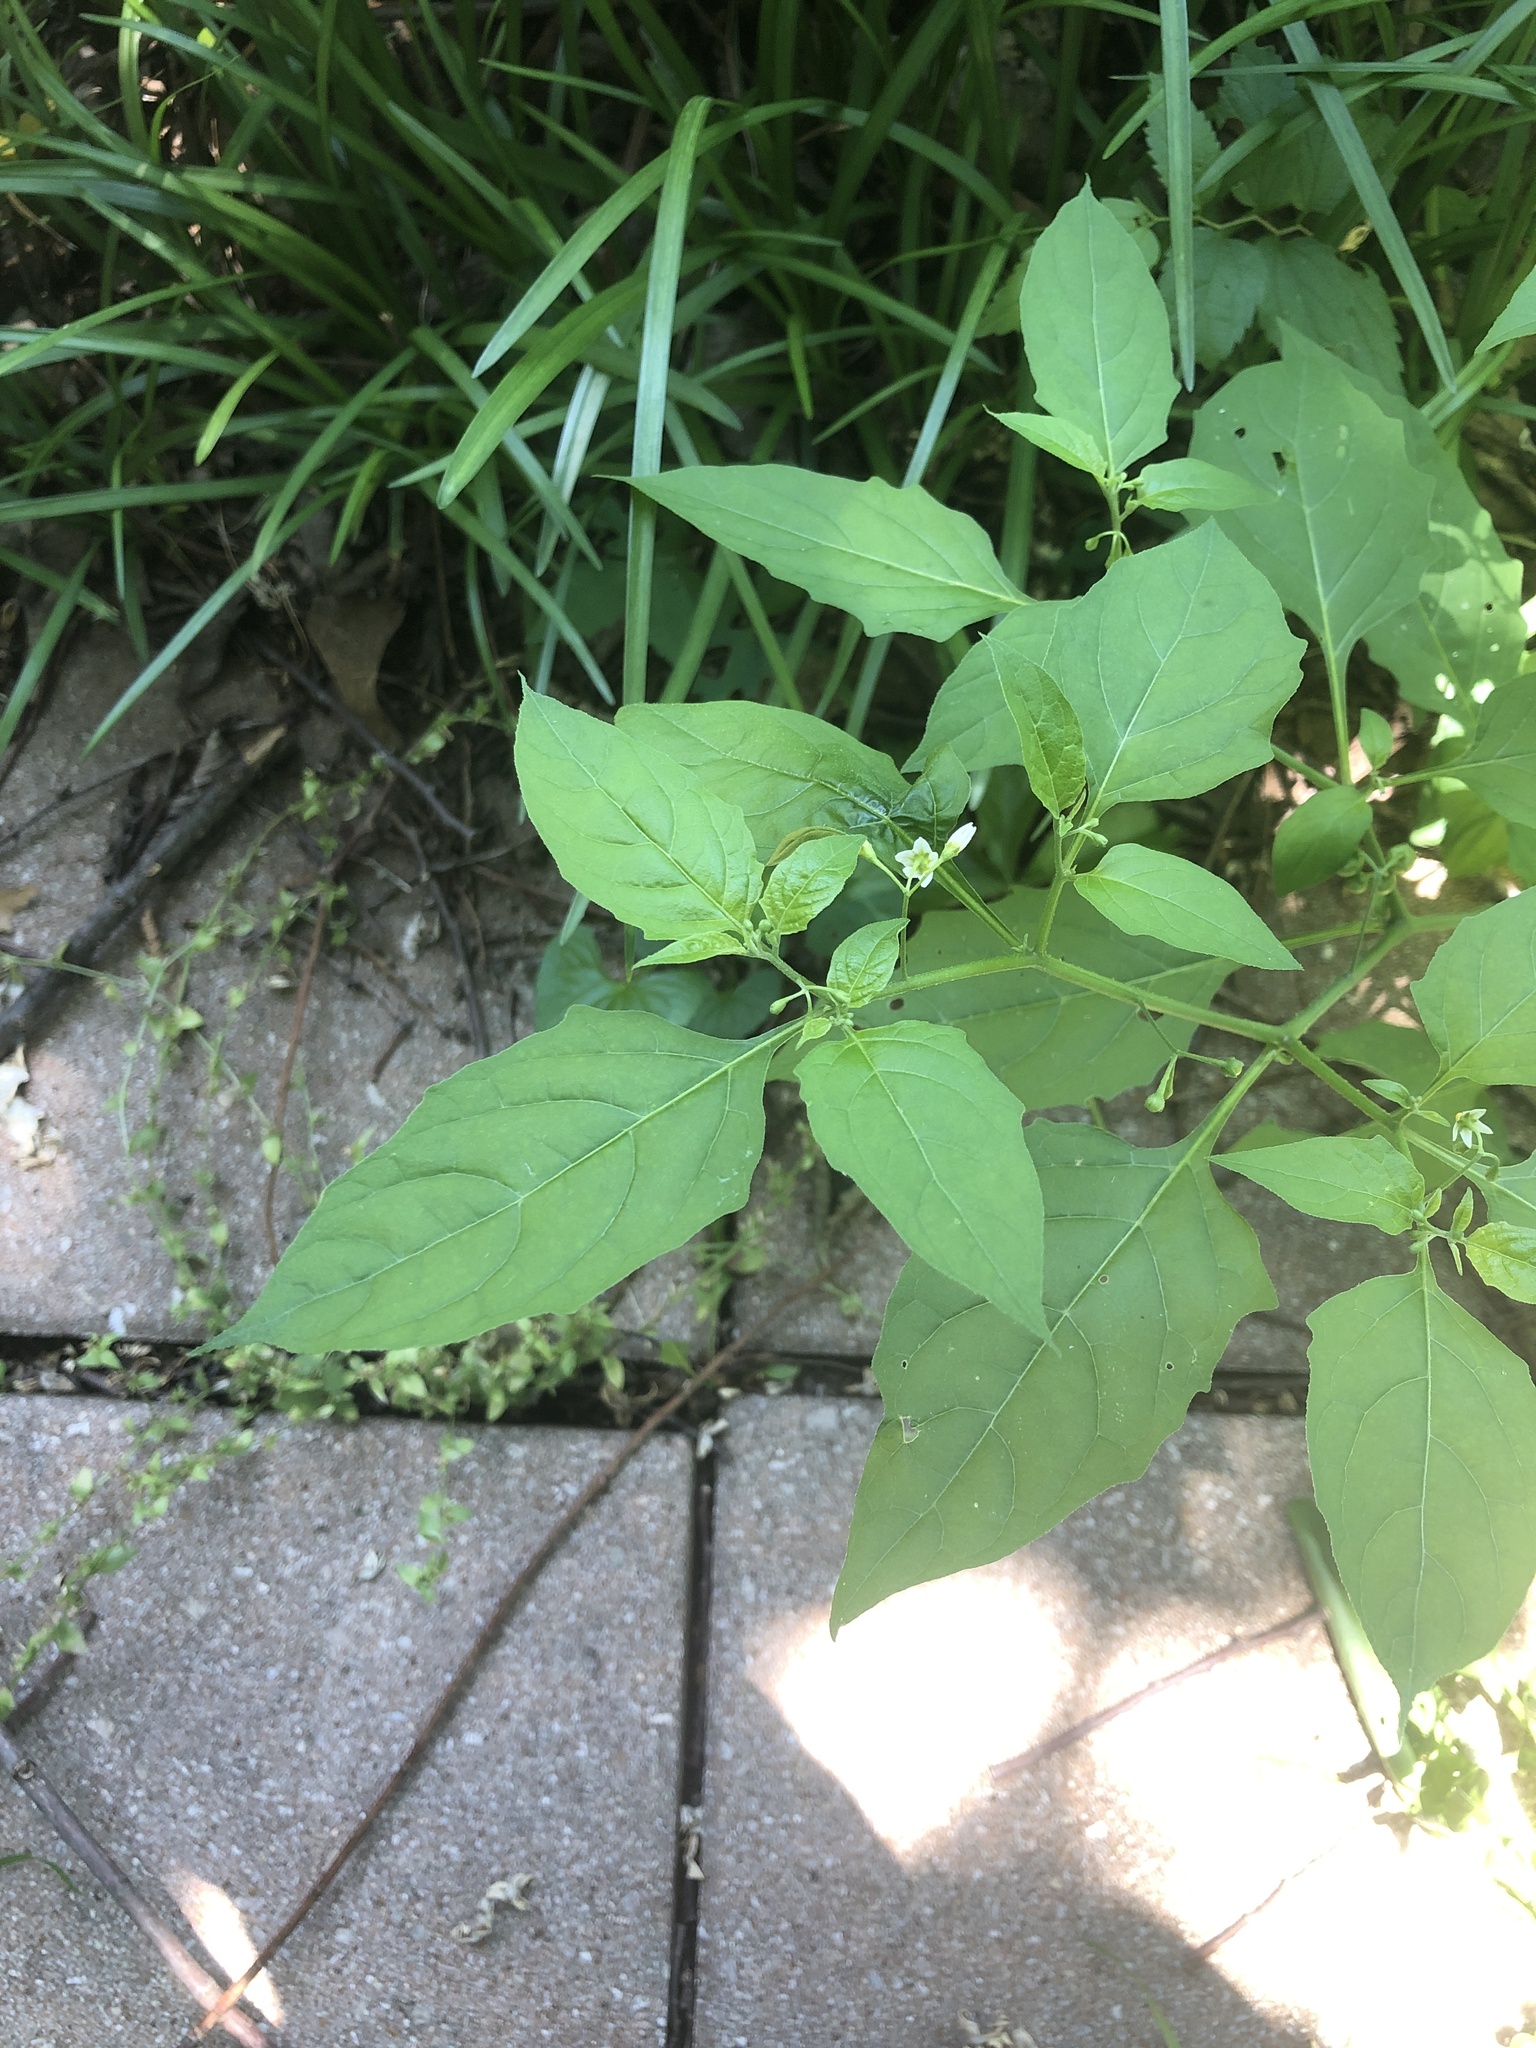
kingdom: Plantae
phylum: Tracheophyta
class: Magnoliopsida
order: Solanales
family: Solanaceae
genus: Solanum
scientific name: Solanum emulans
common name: Eastern black nightshade
